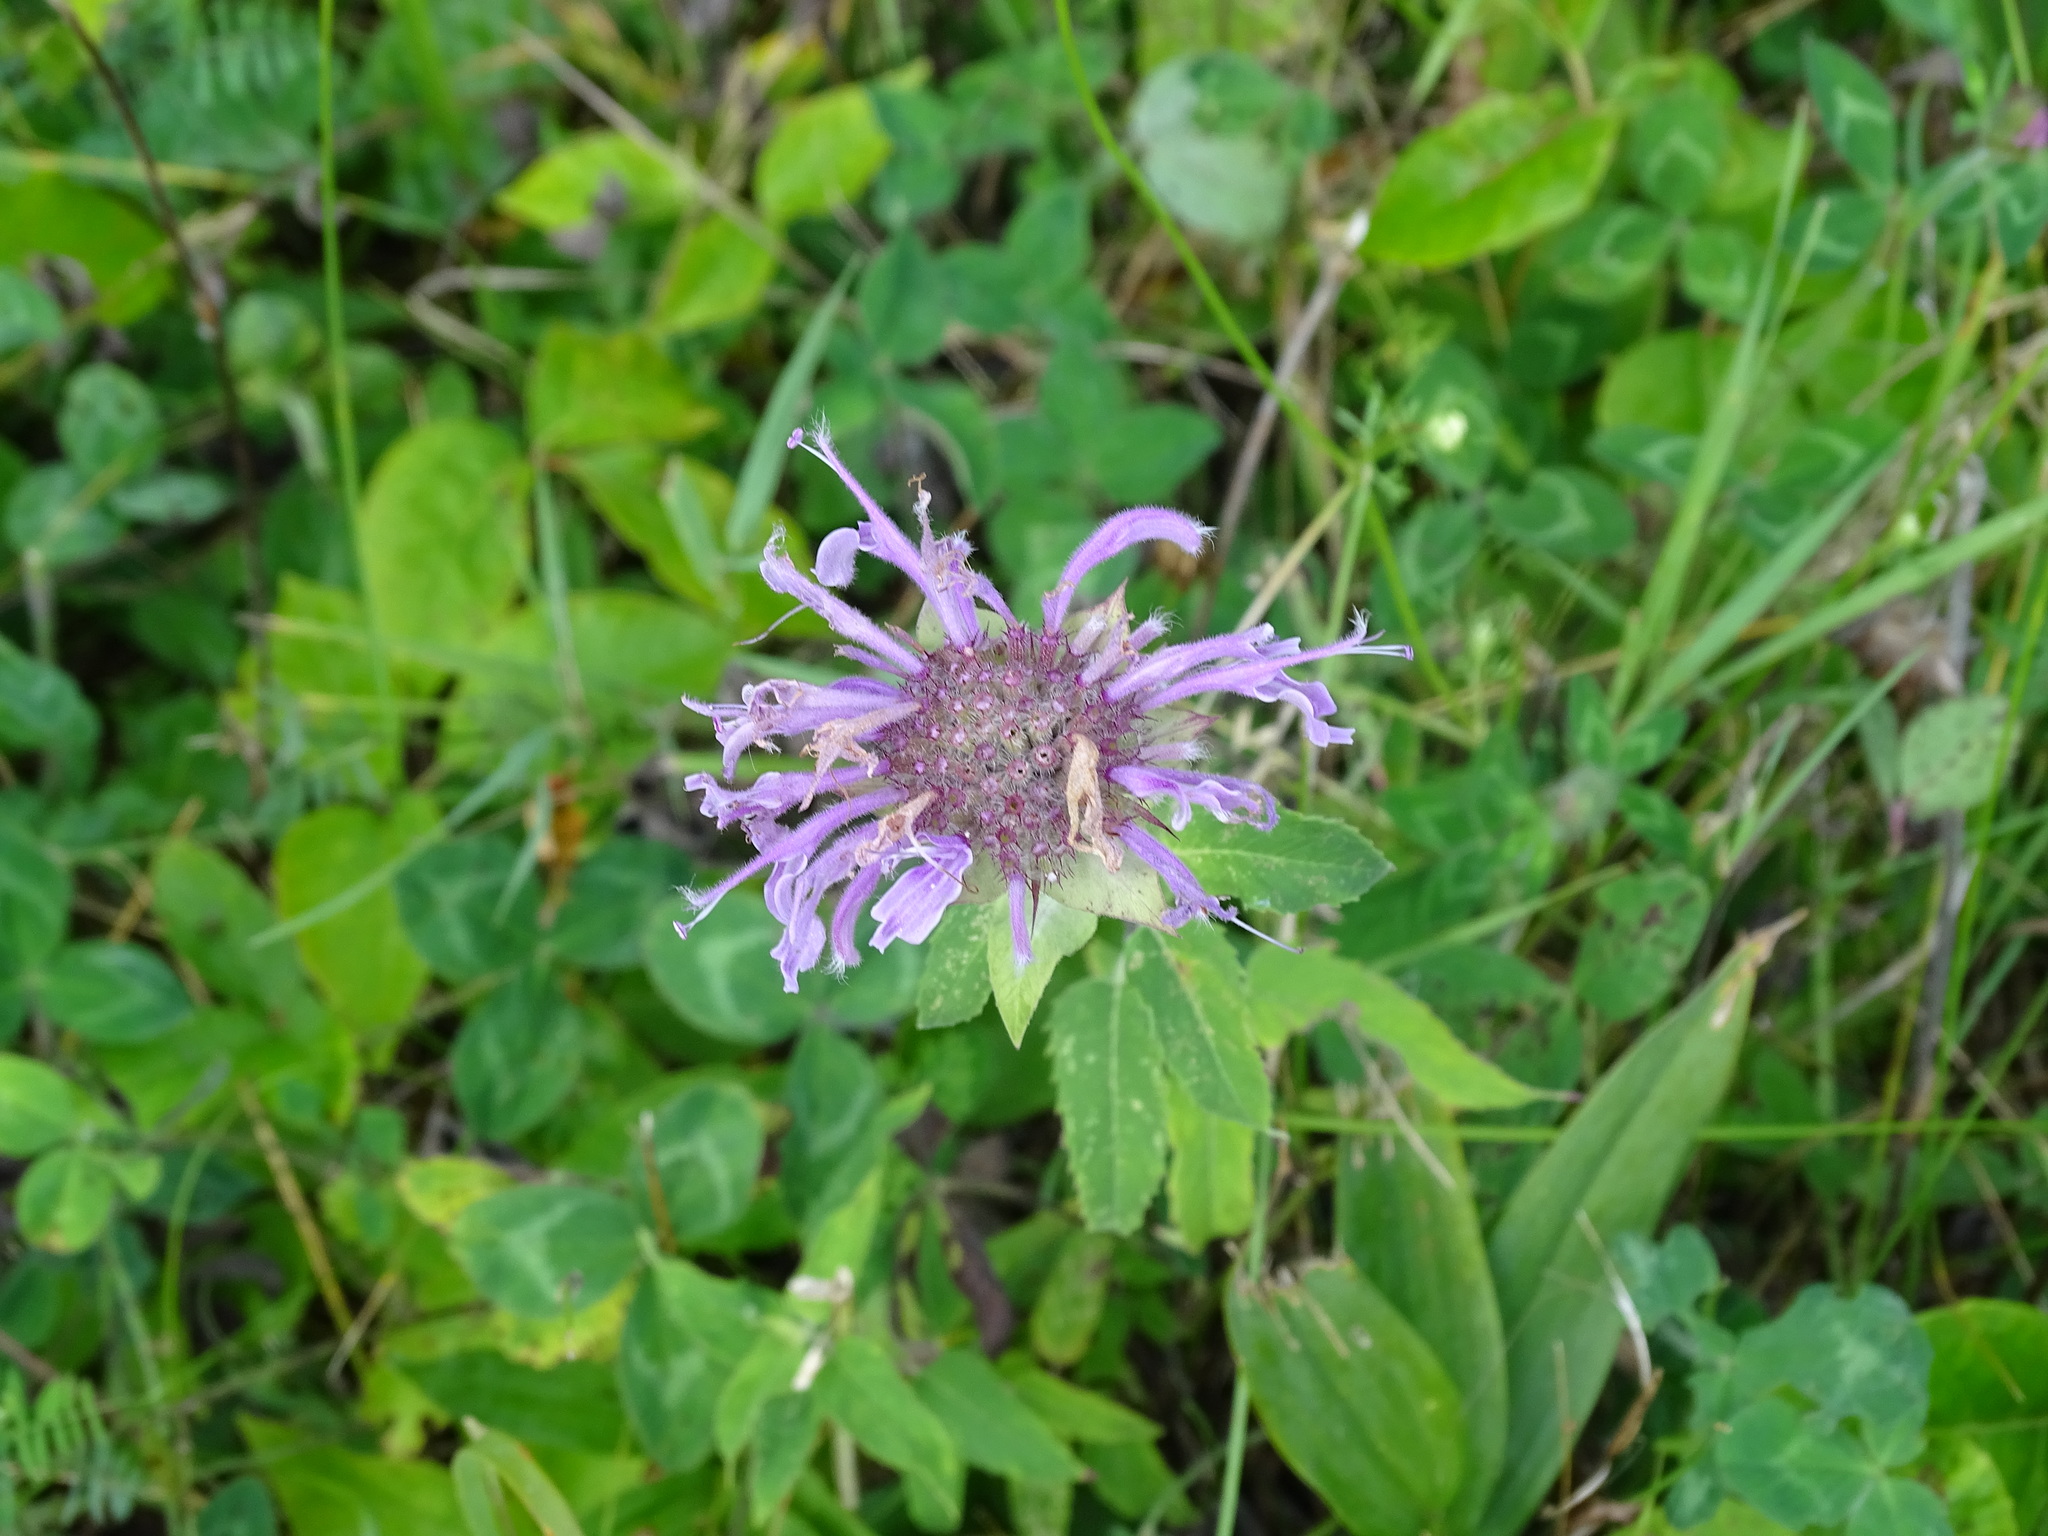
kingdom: Plantae
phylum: Tracheophyta
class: Magnoliopsida
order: Lamiales
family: Lamiaceae
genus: Monarda
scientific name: Monarda fistulosa
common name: Purple beebalm
